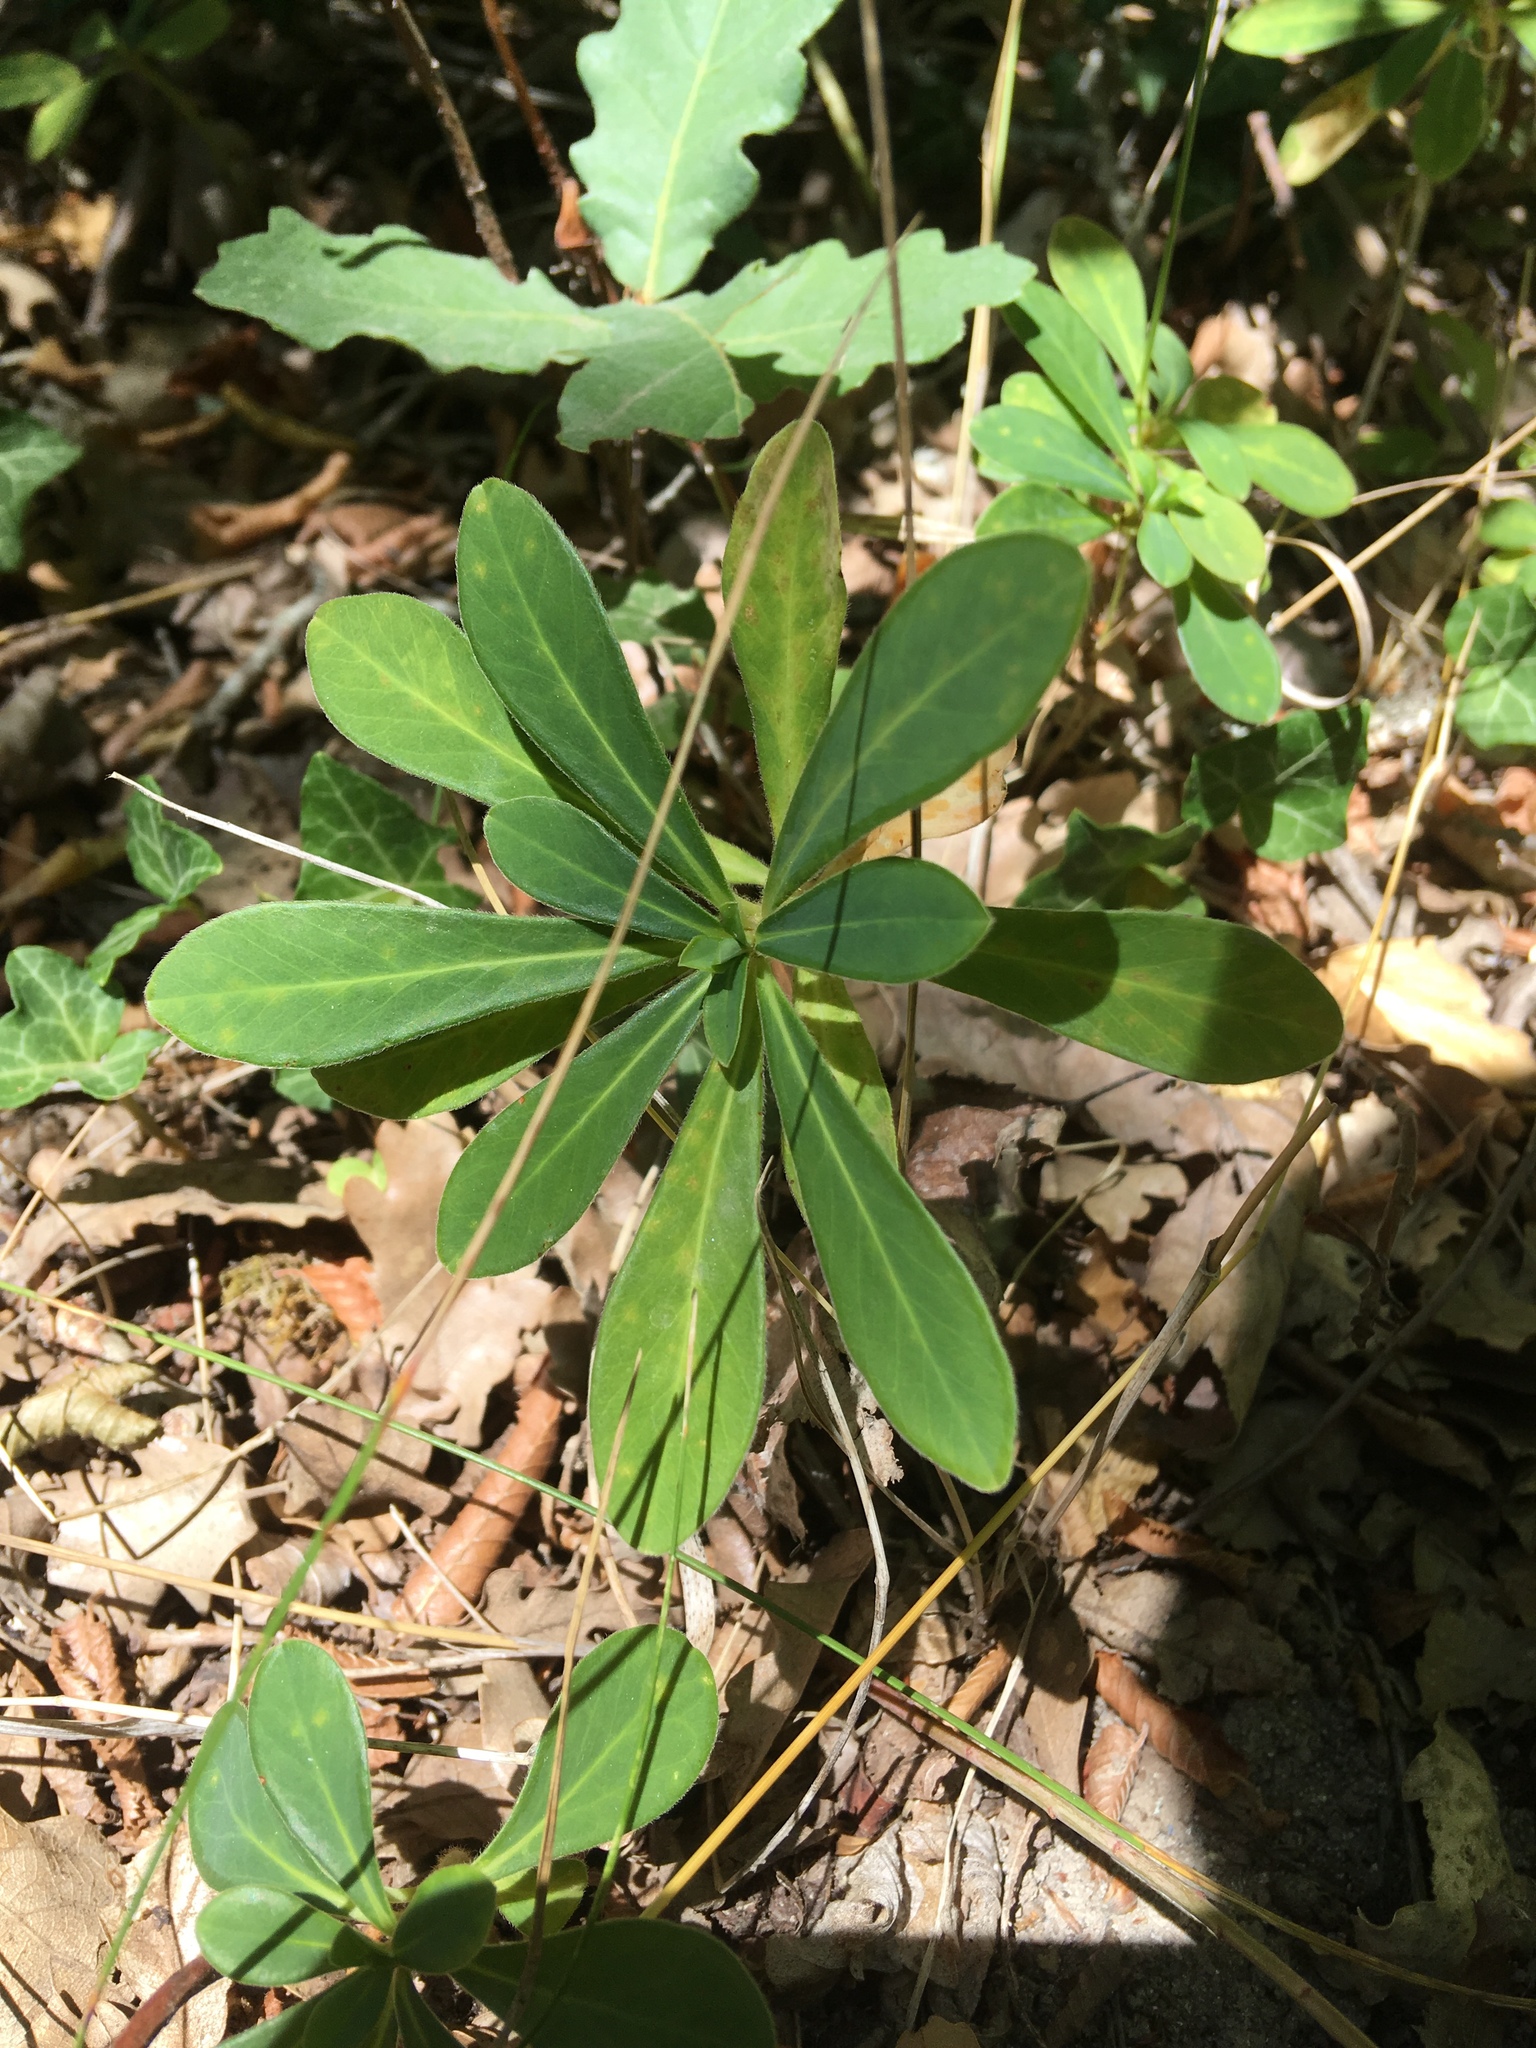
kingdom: Plantae
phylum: Tracheophyta
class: Magnoliopsida
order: Malpighiales
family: Euphorbiaceae
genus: Euphorbia
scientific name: Euphorbia amygdaloides
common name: Wood spurge
